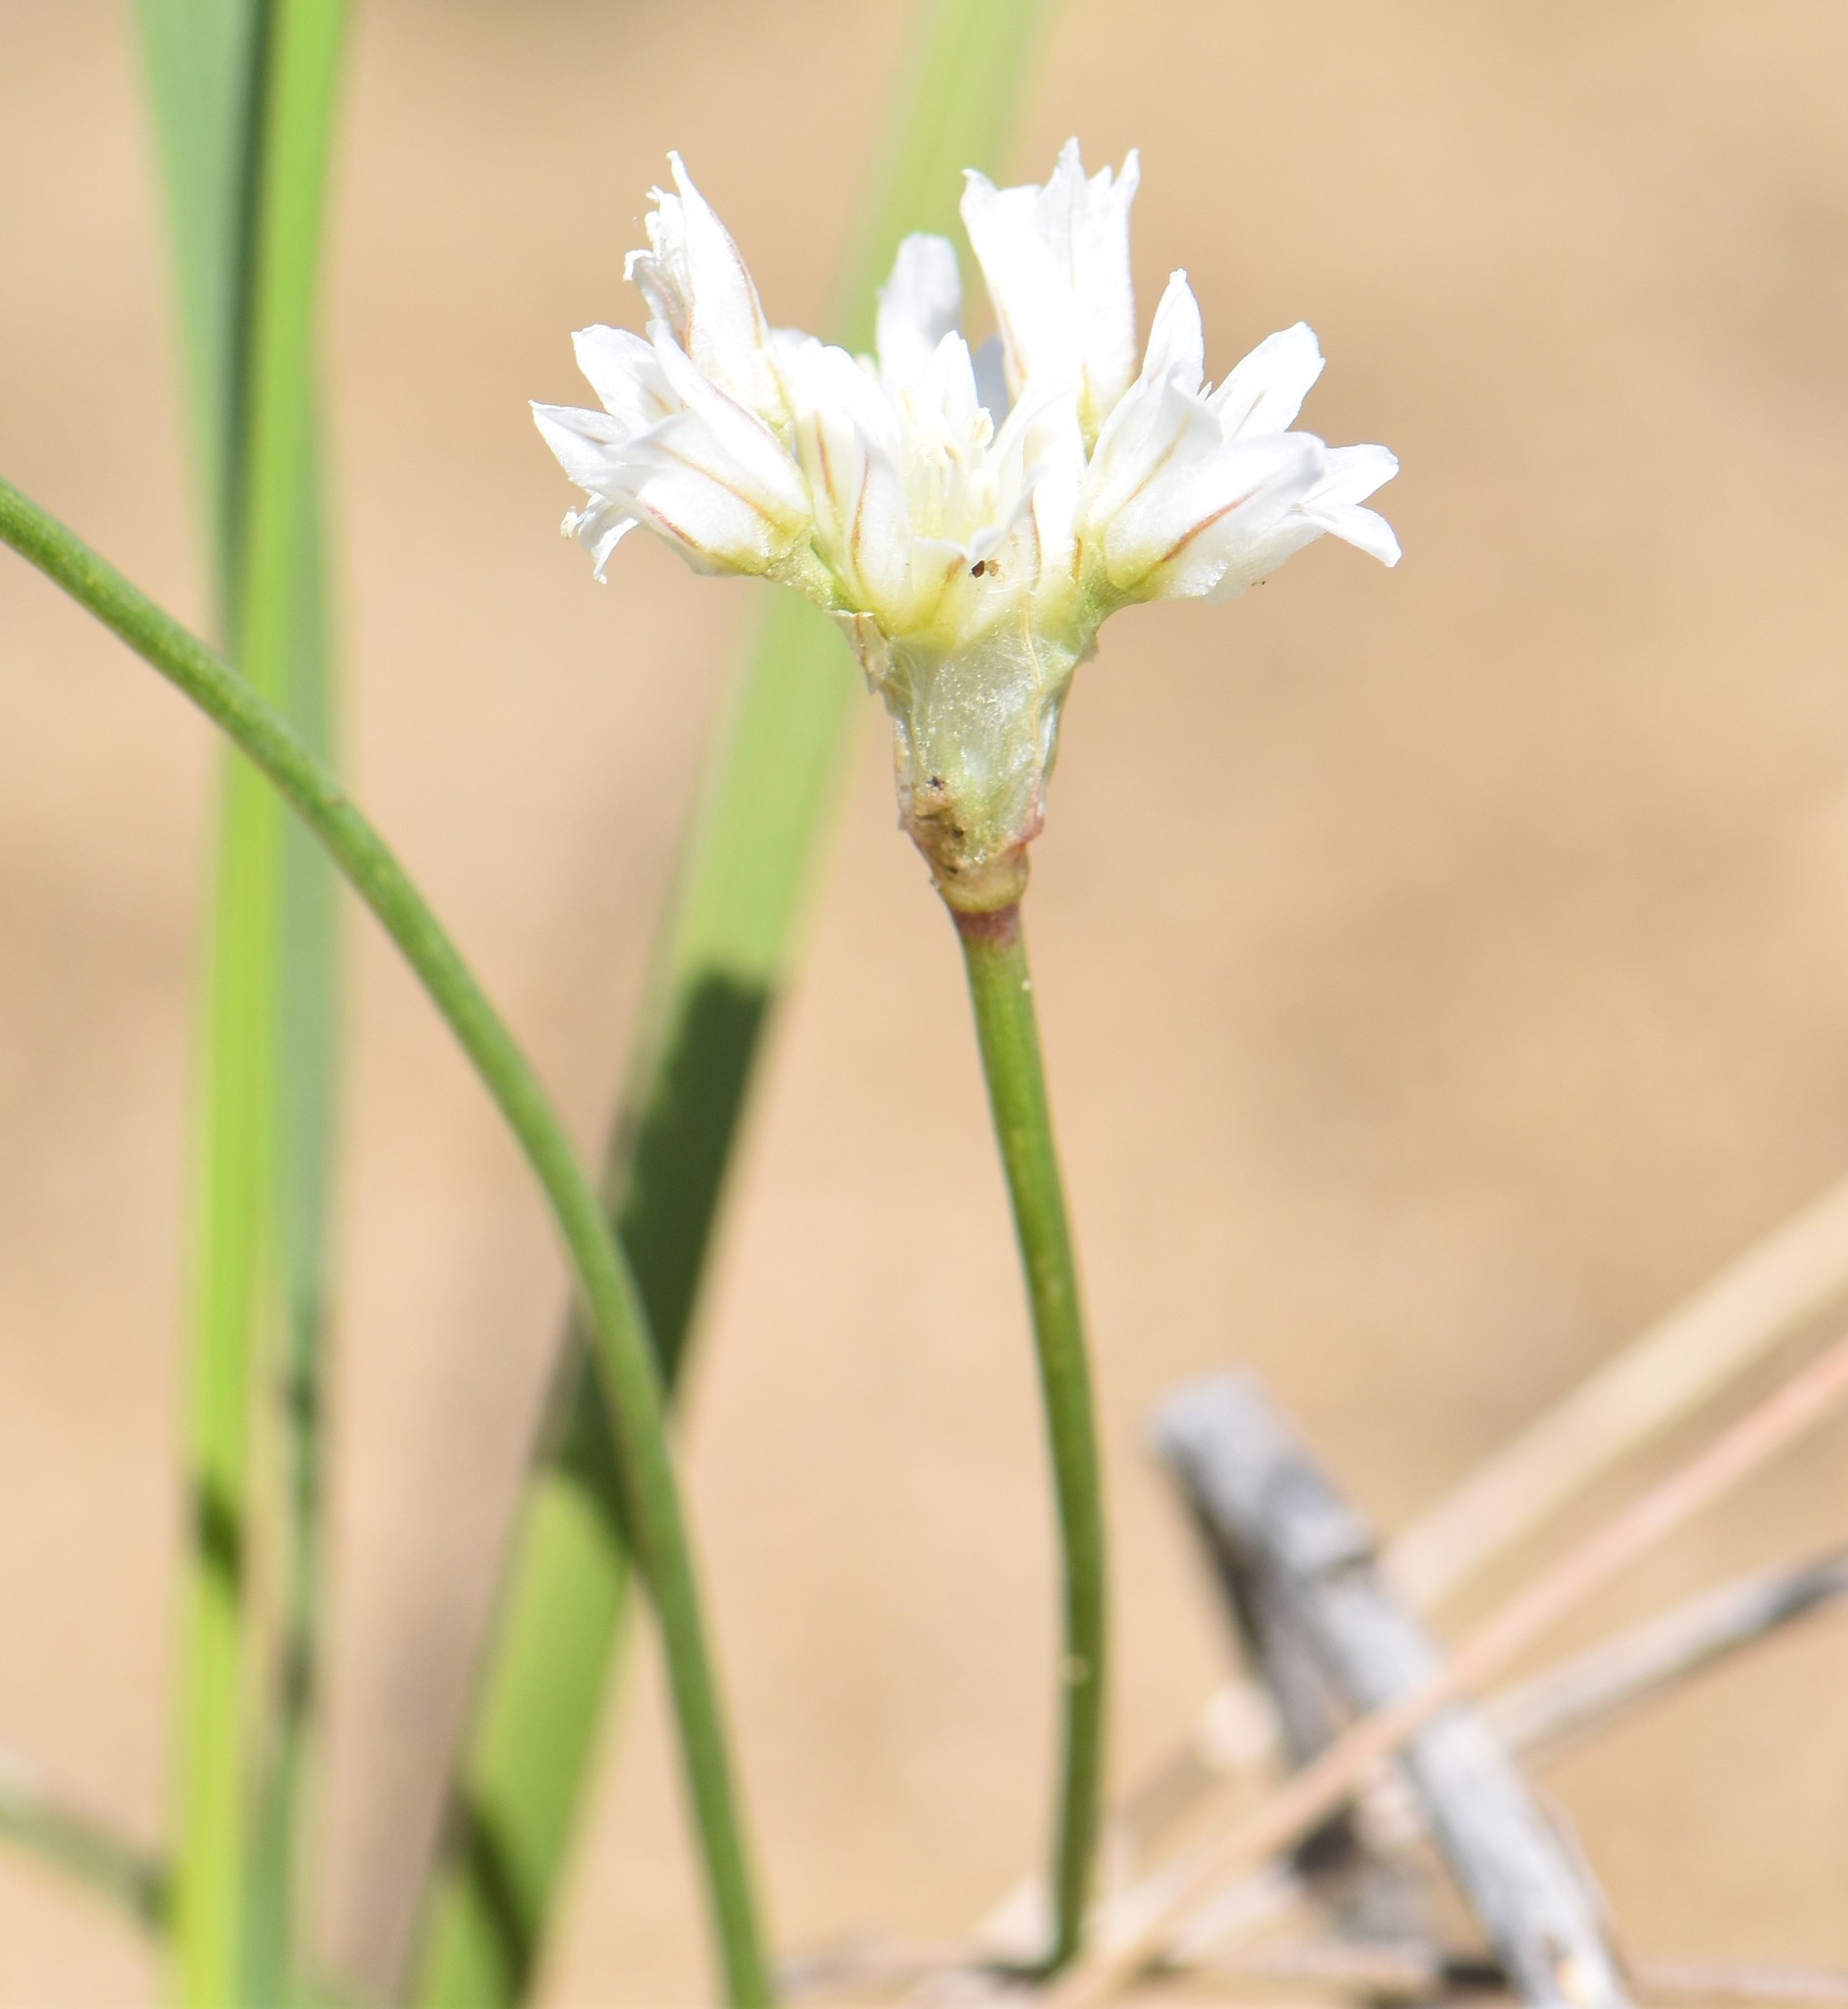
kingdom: Plantae
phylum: Tracheophyta
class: Liliopsida
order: Asparagales
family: Amaryllidaceae
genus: Allium
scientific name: Allium textile
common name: Prairie onion
